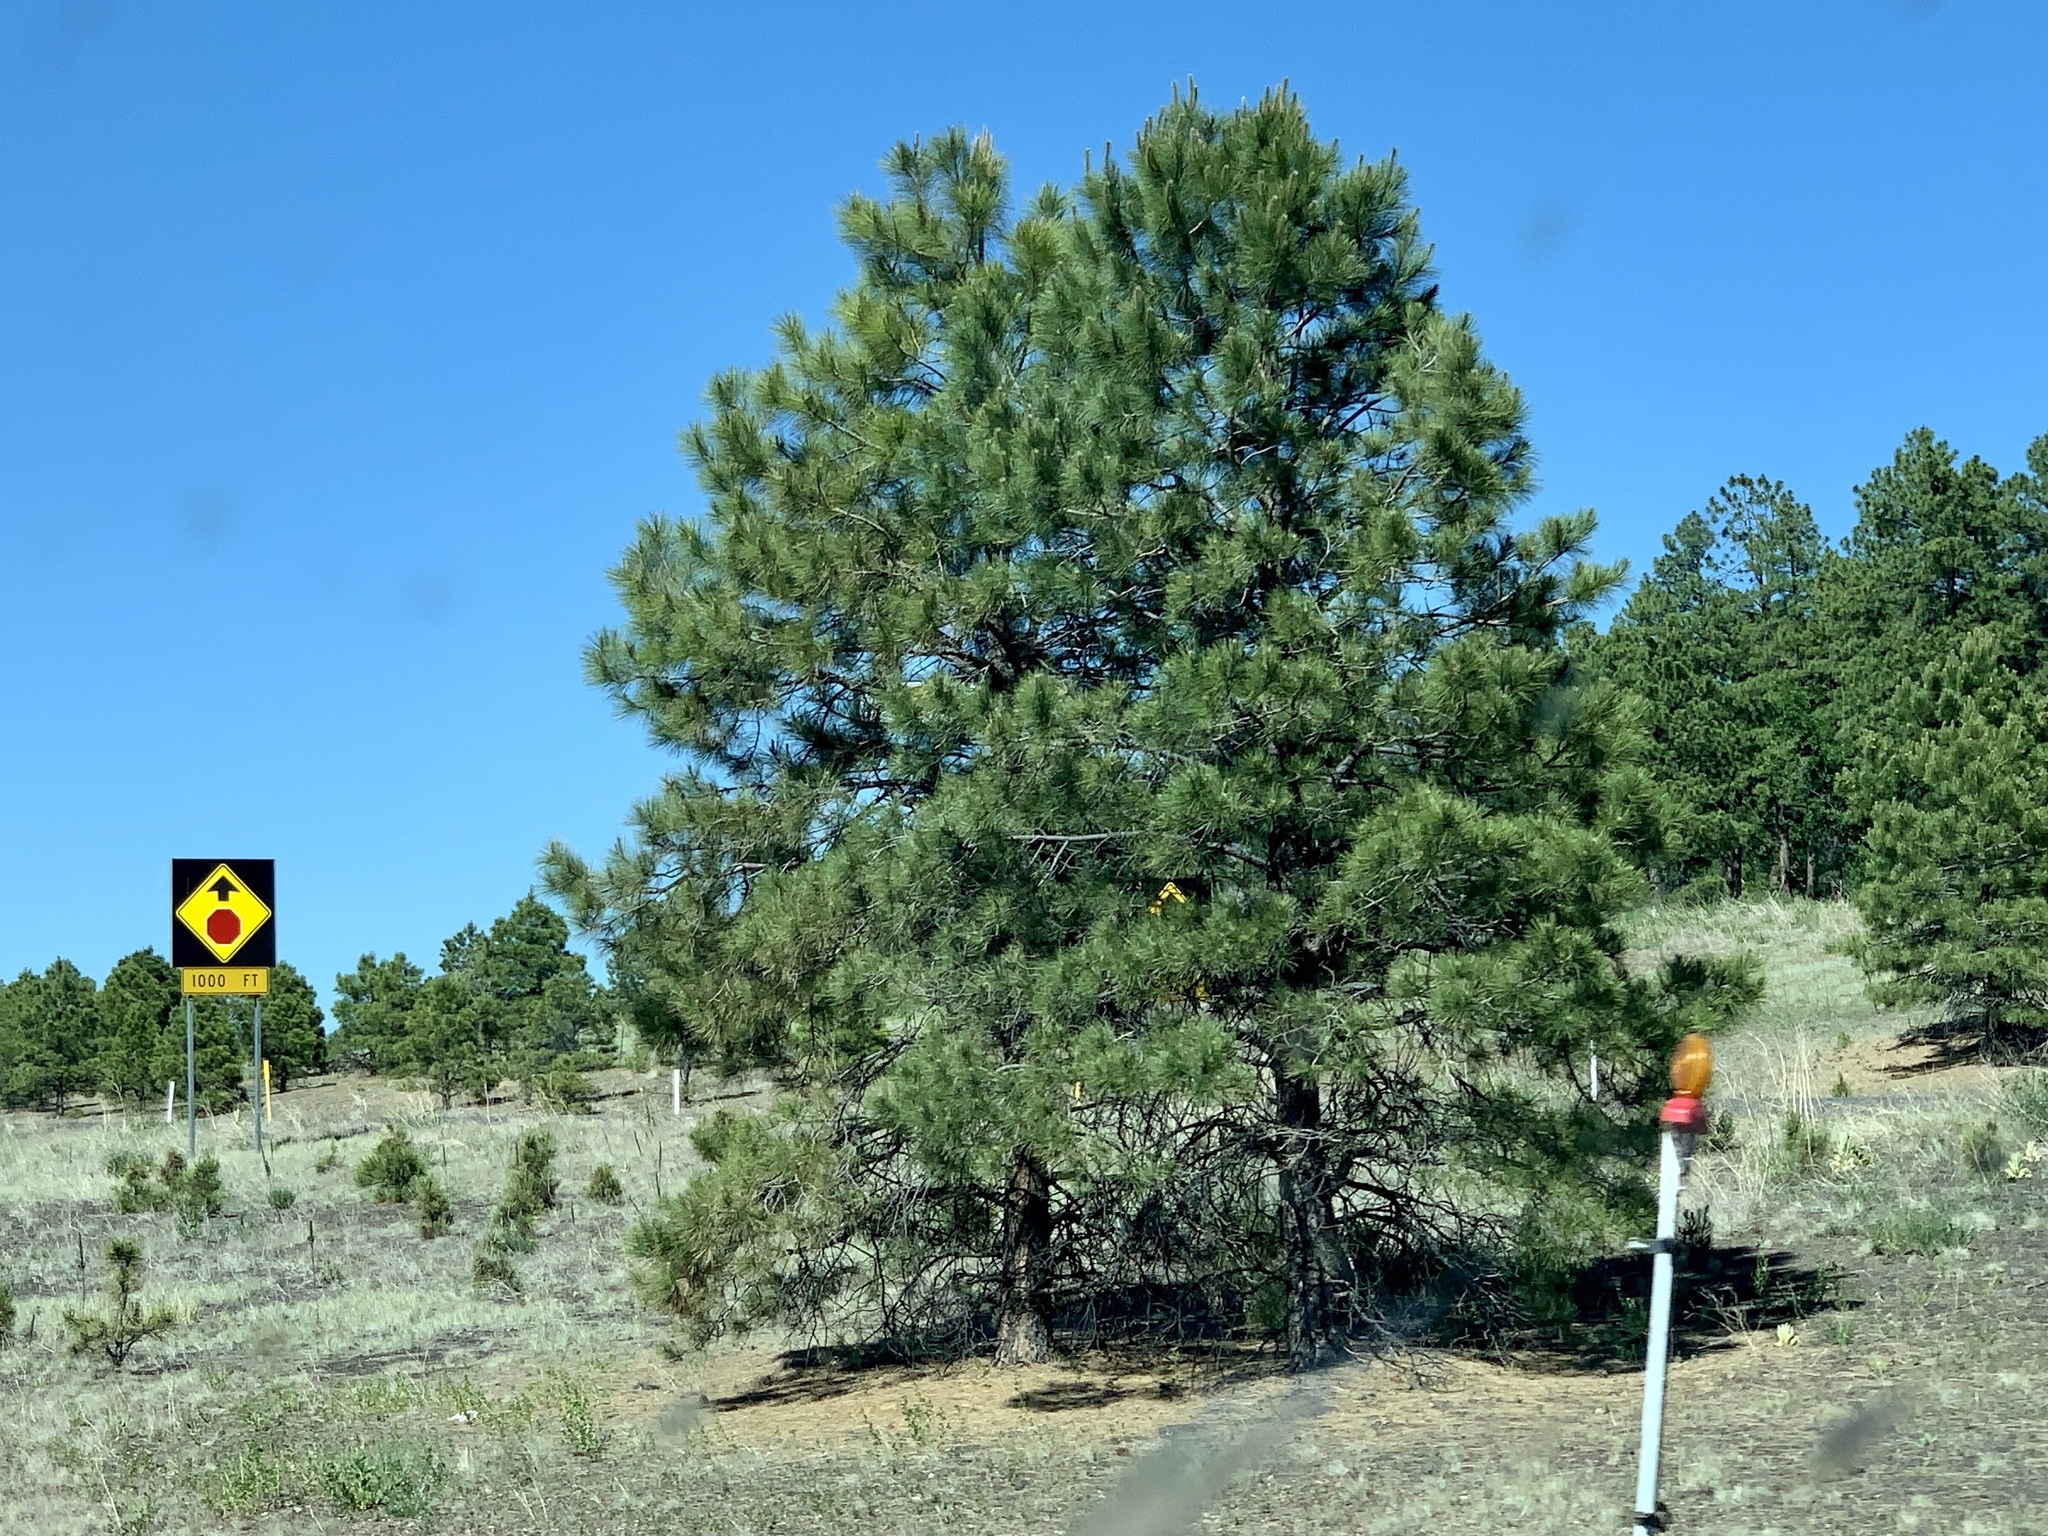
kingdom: Plantae
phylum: Tracheophyta
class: Pinopsida
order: Pinales
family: Pinaceae
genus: Pinus
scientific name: Pinus ponderosa
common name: Western yellow-pine
